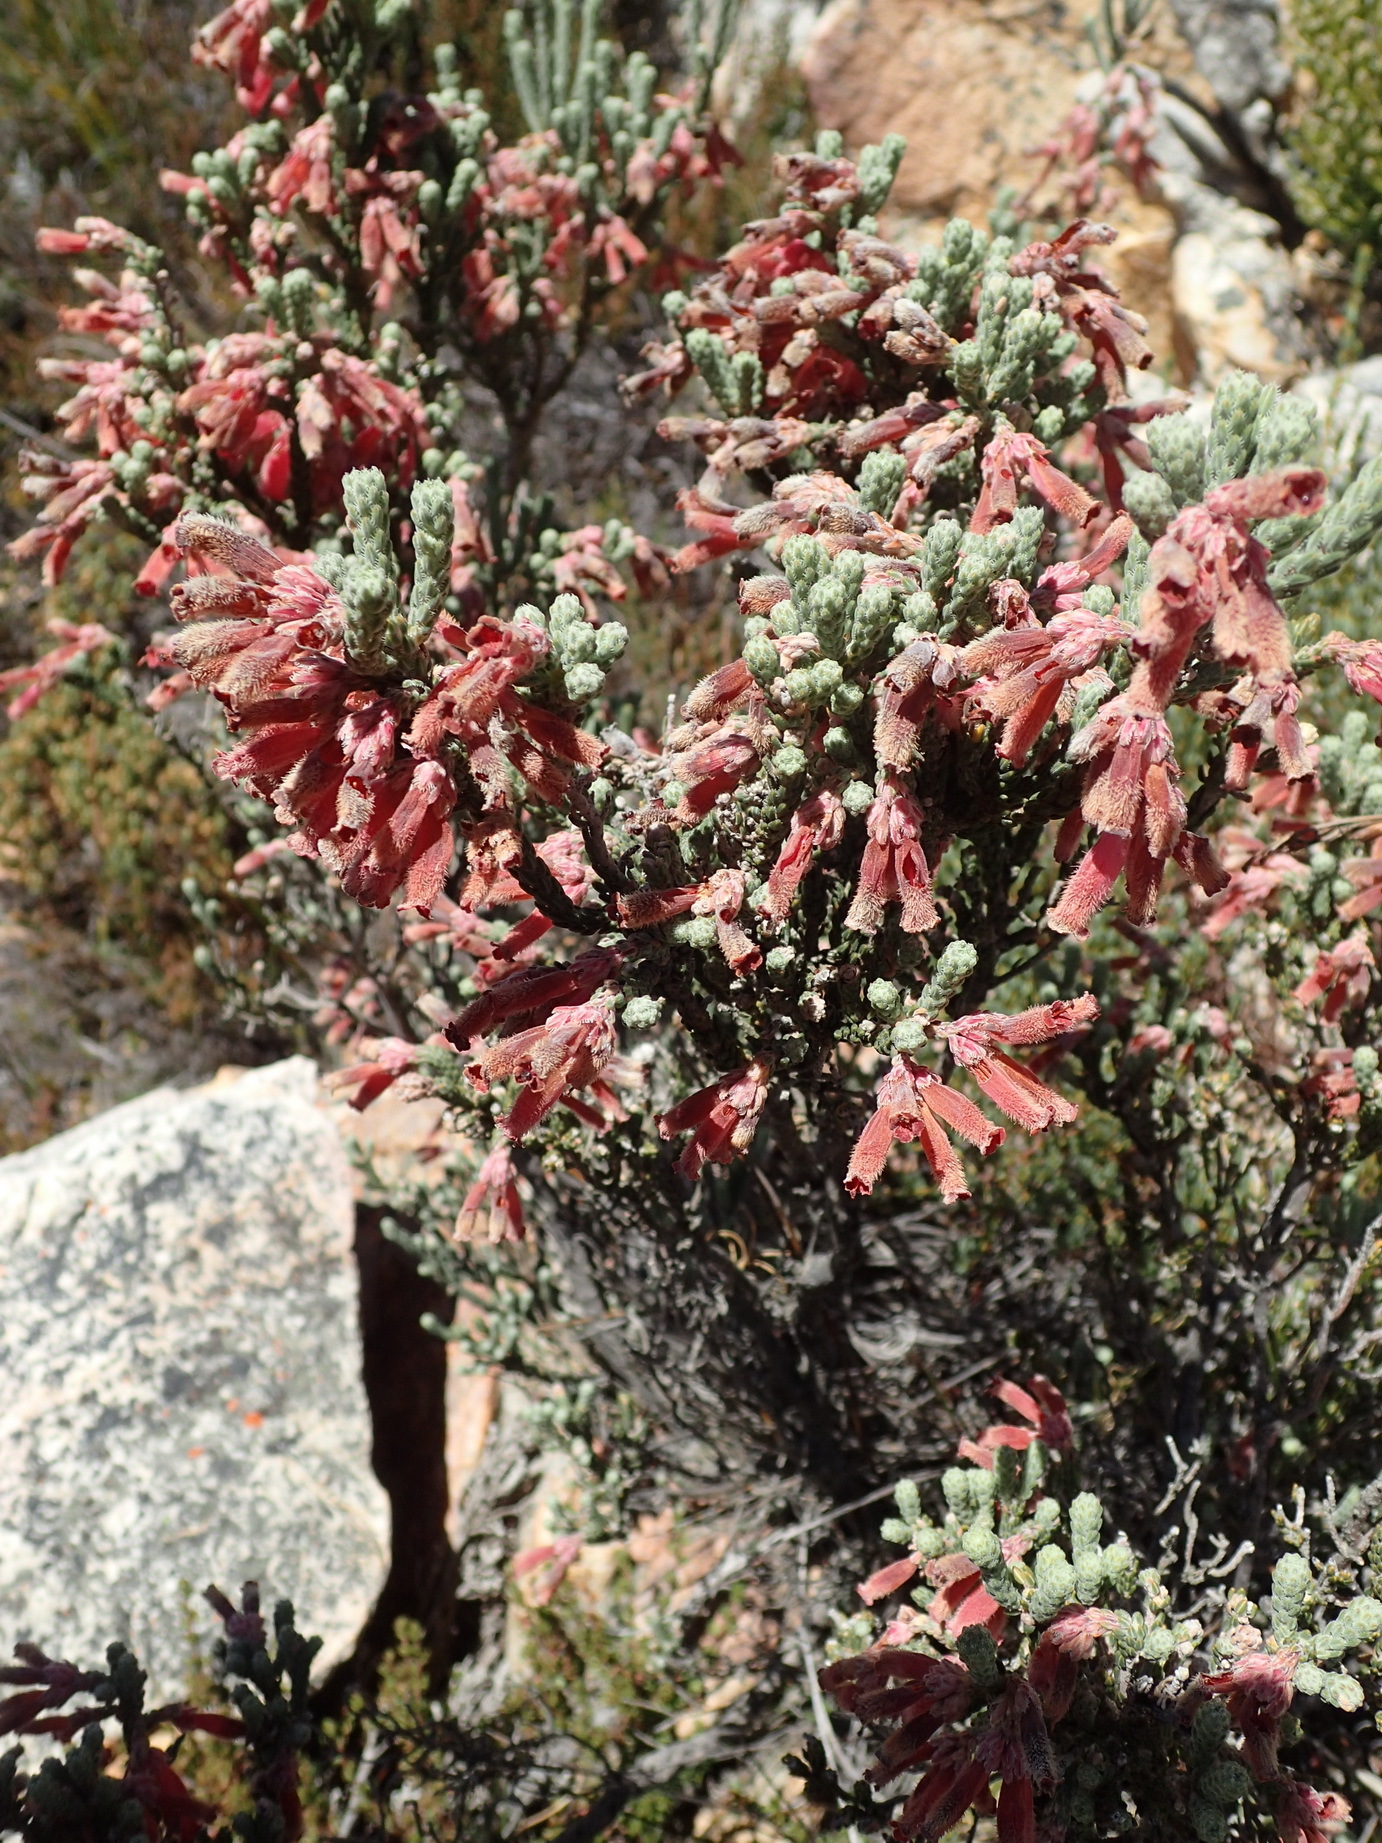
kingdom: Plantae
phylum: Tracheophyta
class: Magnoliopsida
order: Ericales
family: Ericaceae
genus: Erica
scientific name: Erica strigilifolia
